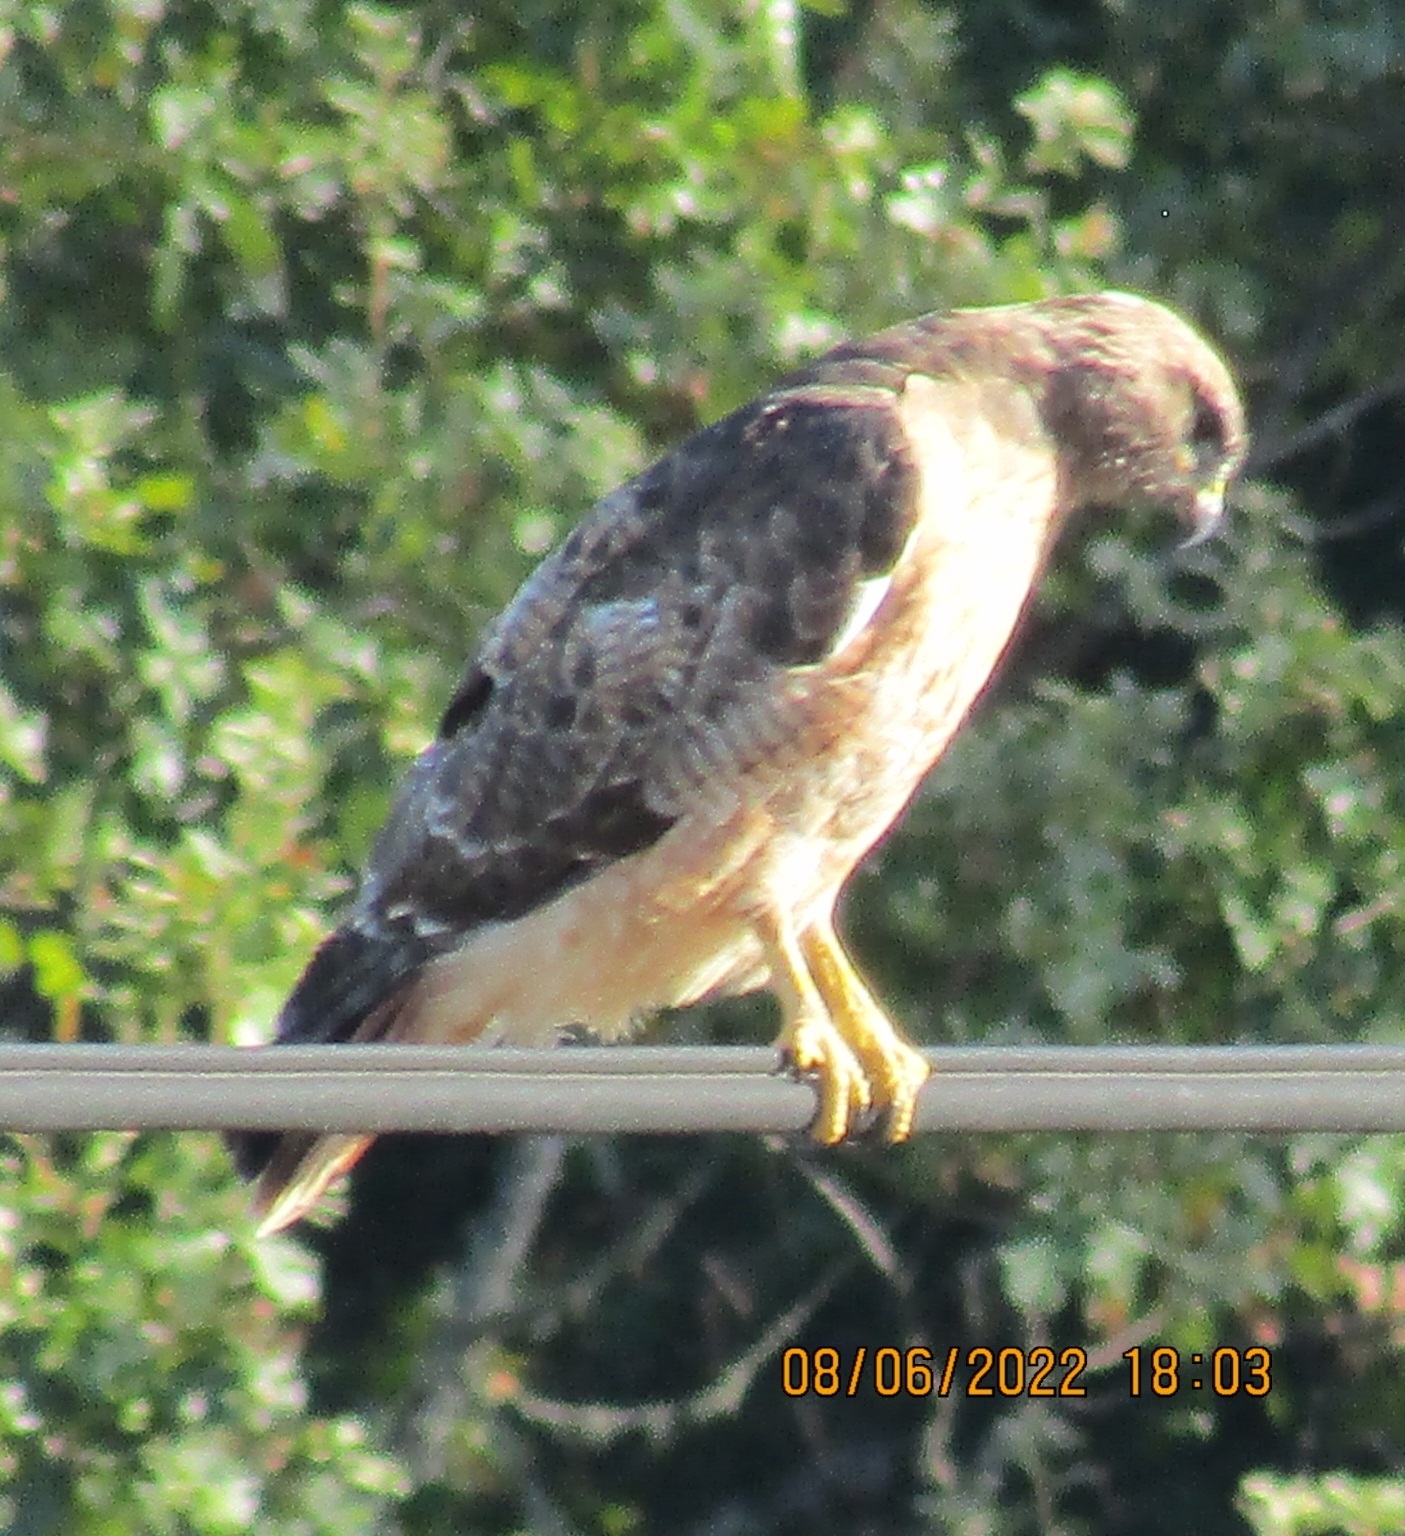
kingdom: Animalia
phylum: Chordata
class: Aves
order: Accipitriformes
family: Accipitridae
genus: Buteo
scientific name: Buteo jamaicensis
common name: Red-tailed hawk
